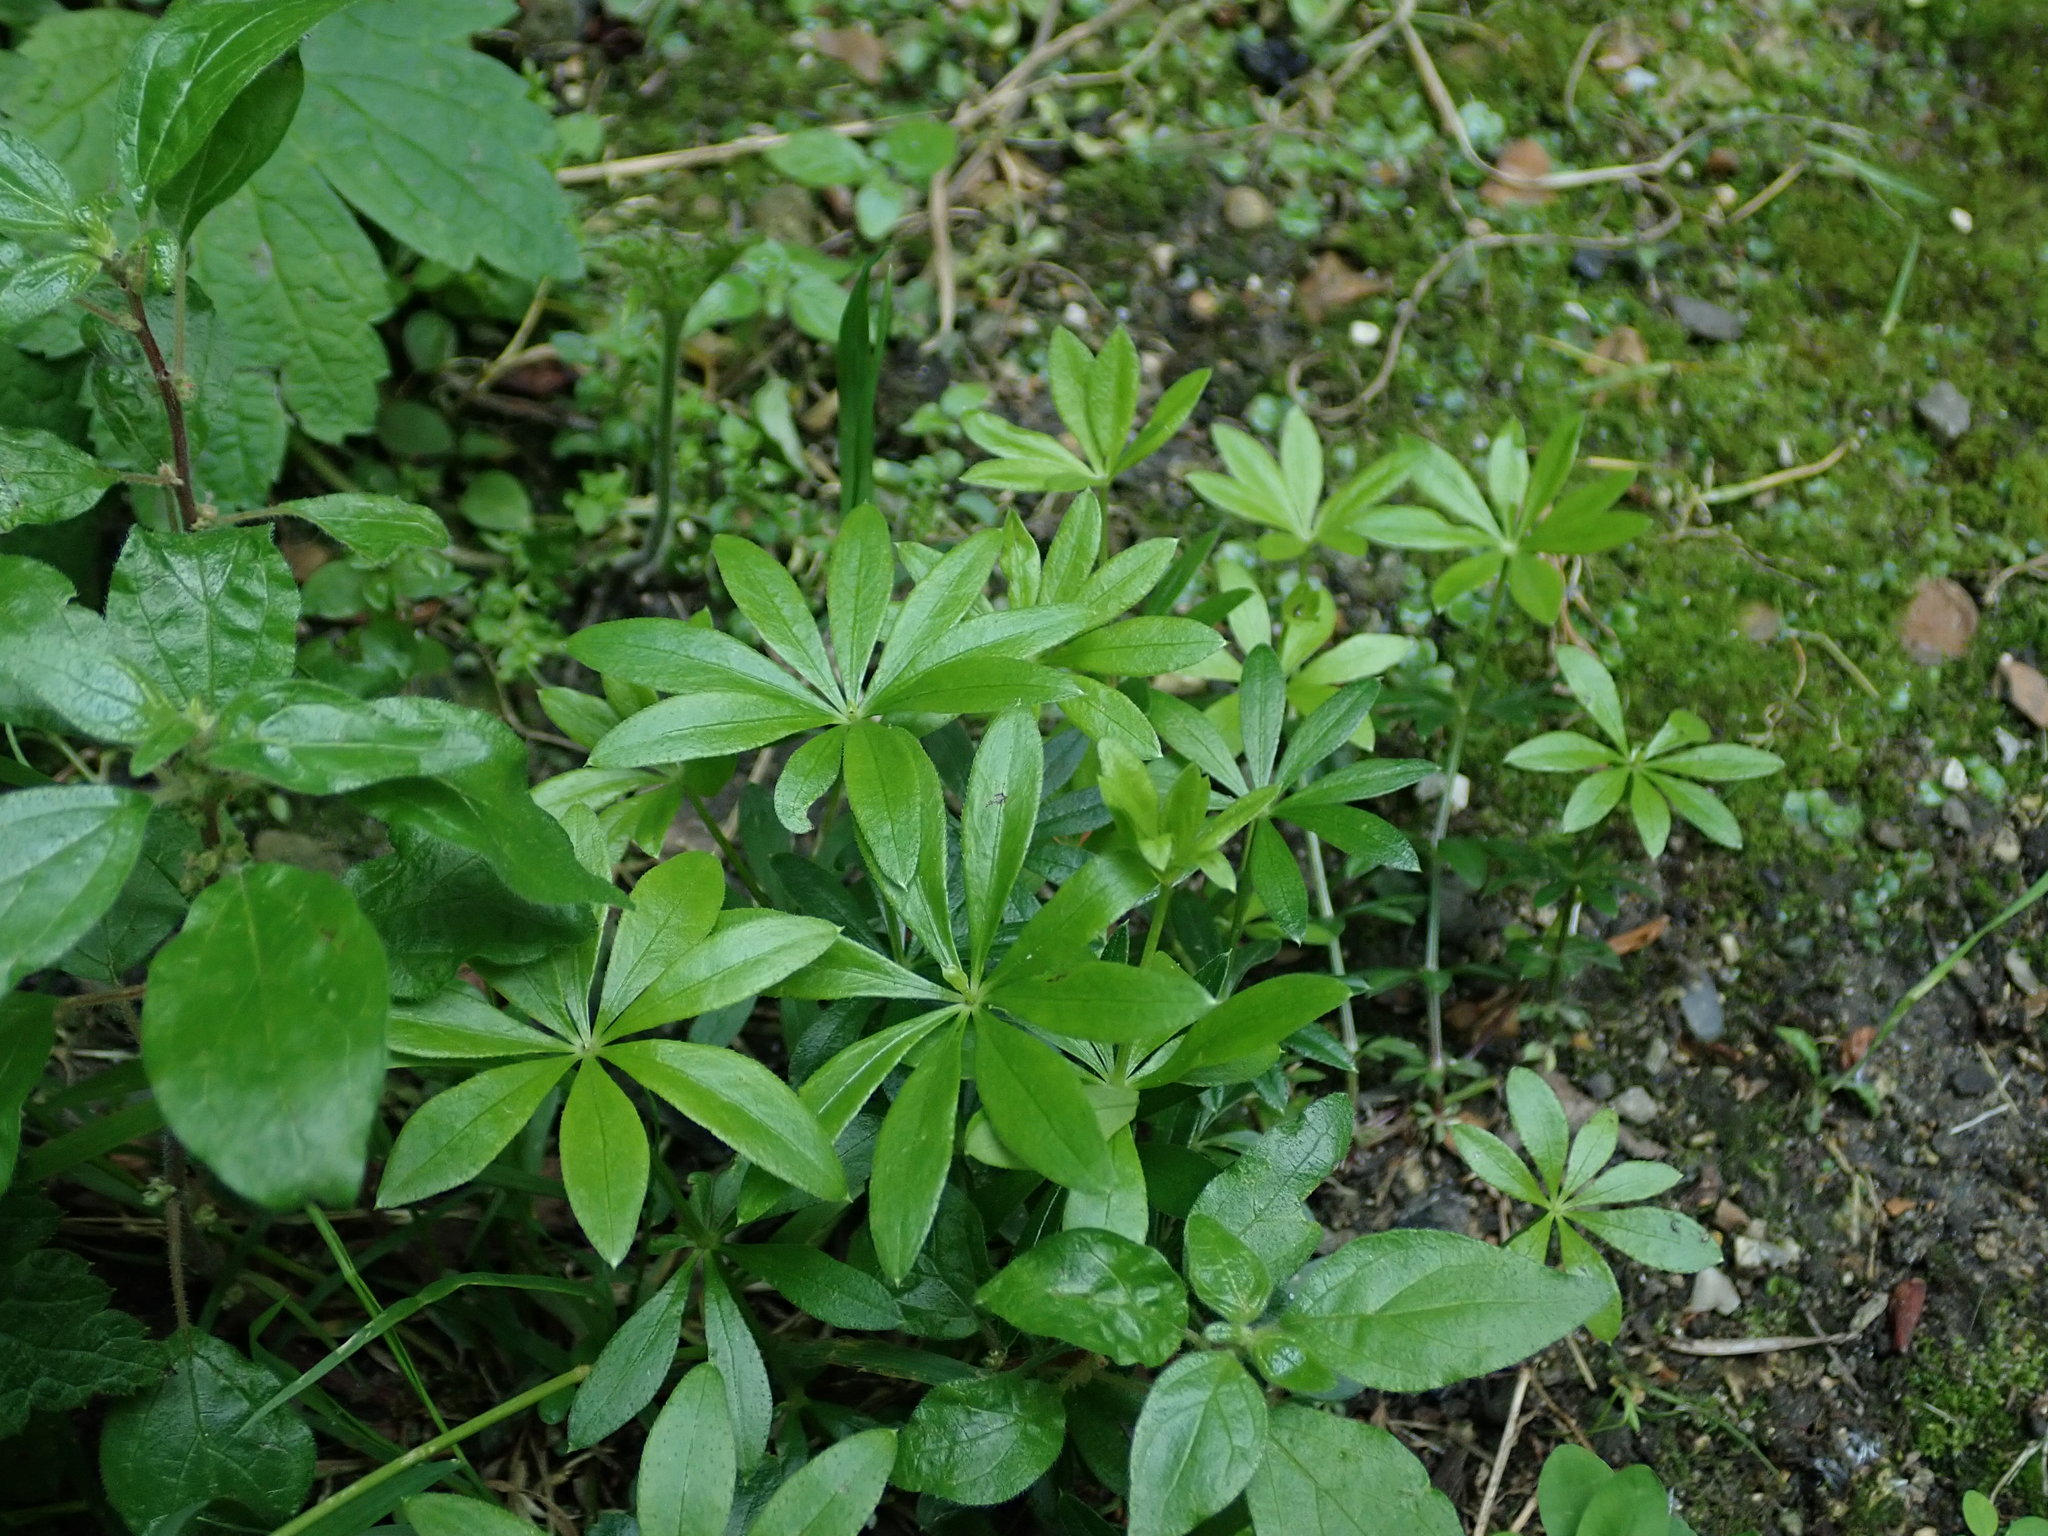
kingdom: Plantae
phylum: Tracheophyta
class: Magnoliopsida
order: Gentianales
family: Rubiaceae
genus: Galium
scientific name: Galium odoratum
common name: Sweet woodruff
